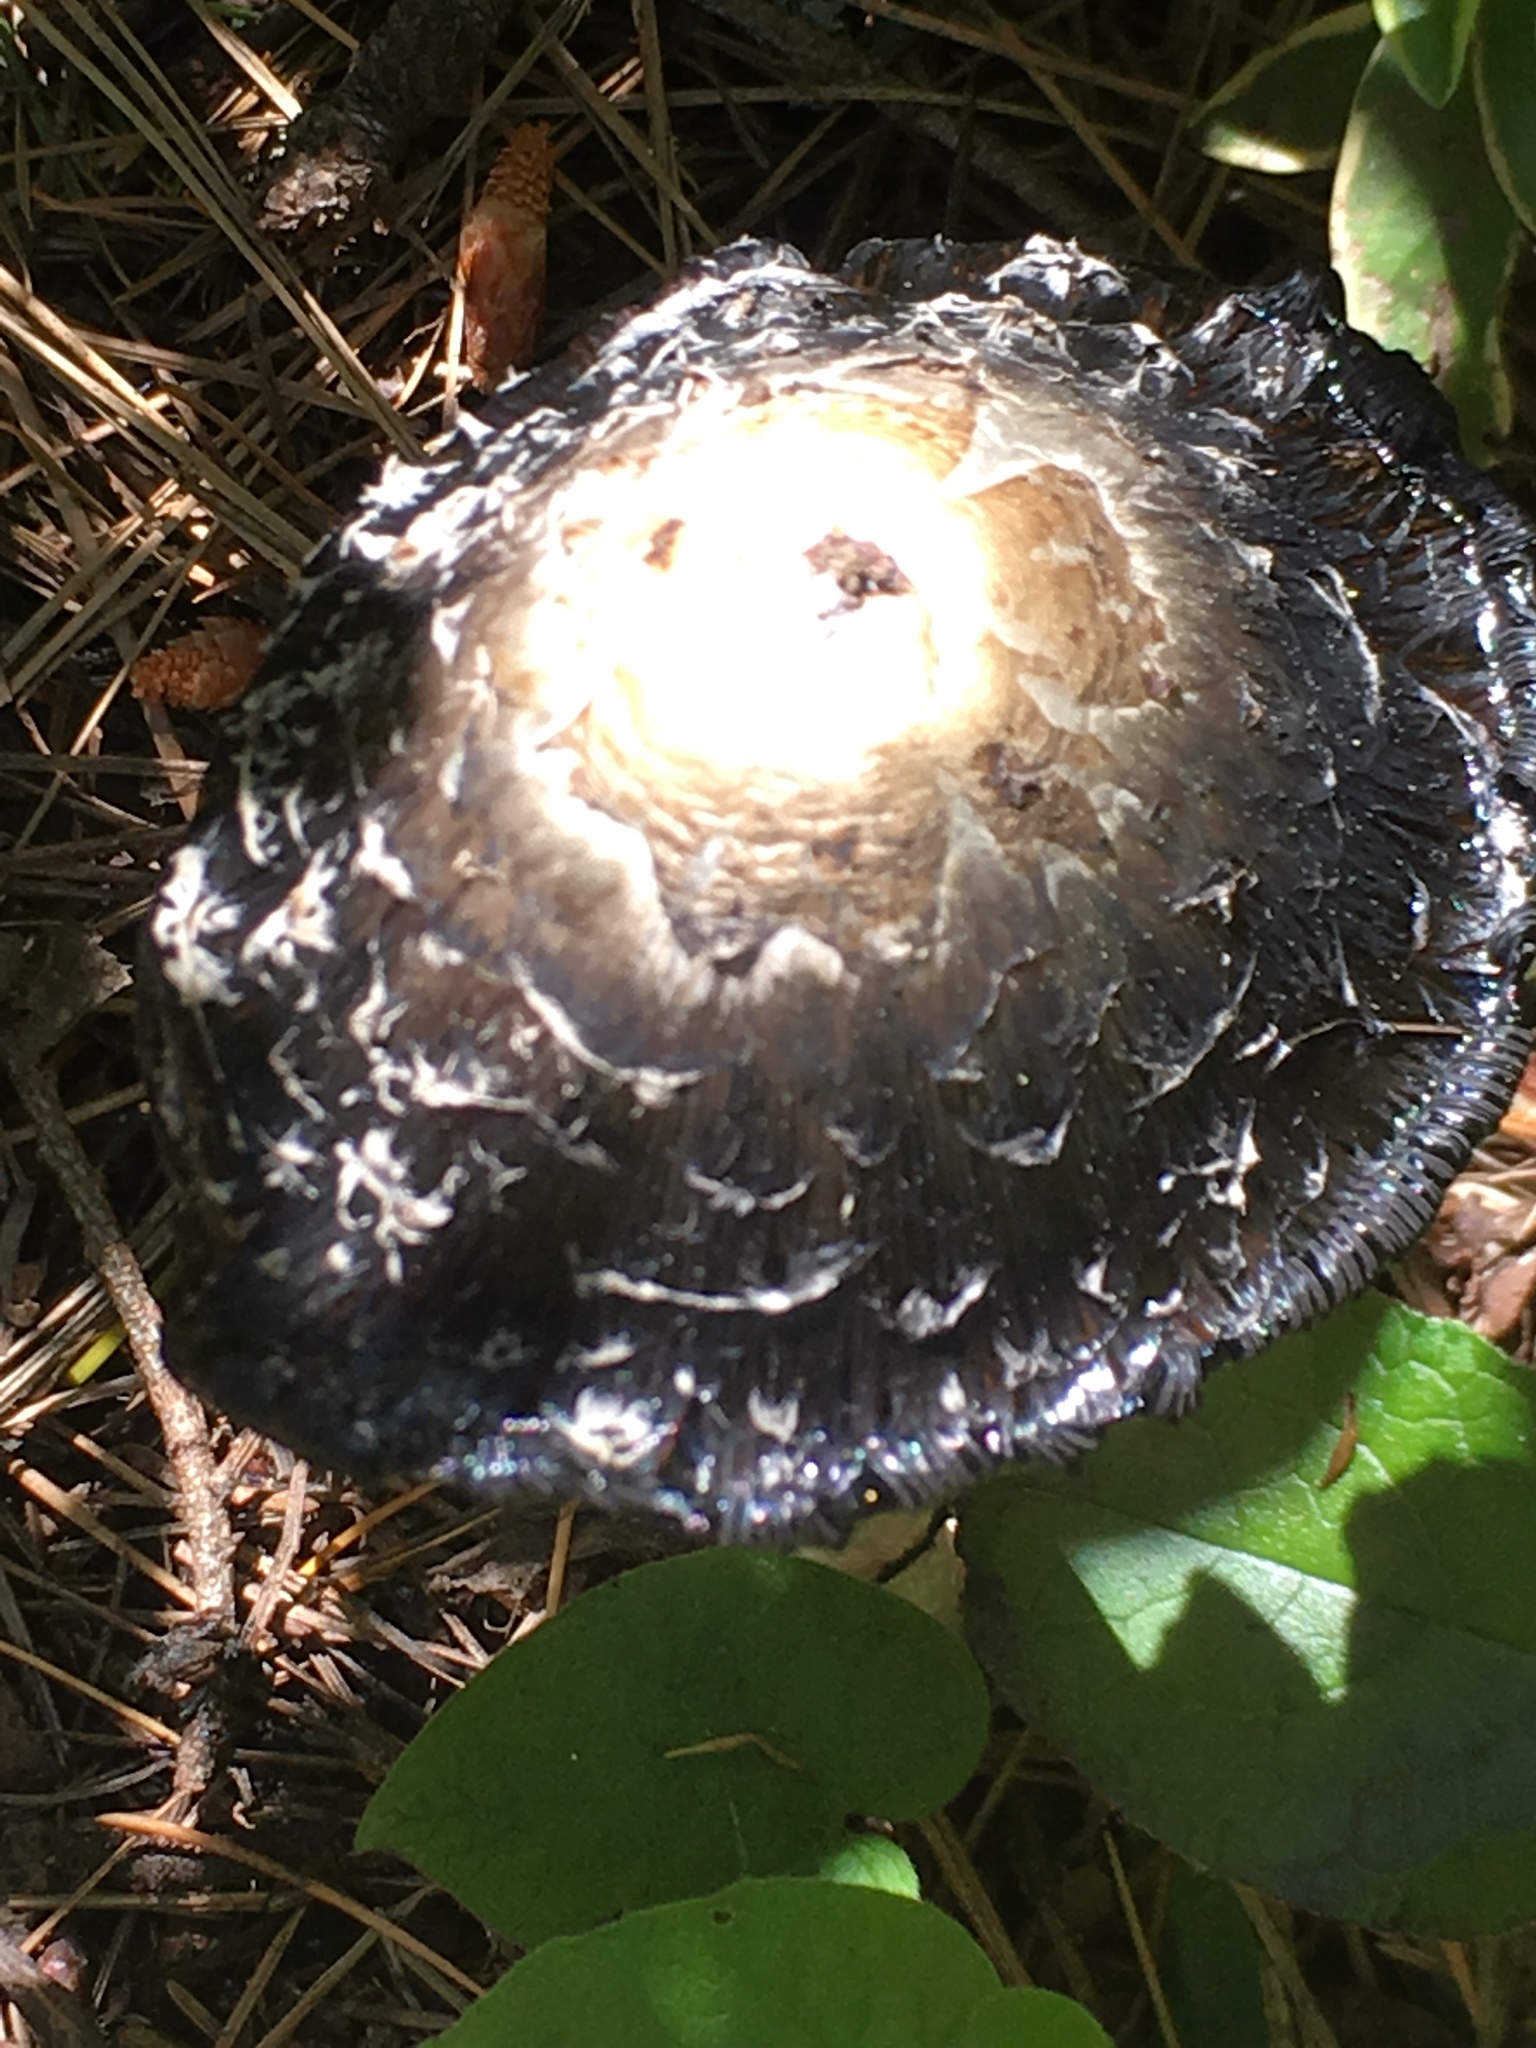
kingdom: Fungi
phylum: Basidiomycota
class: Agaricomycetes
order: Agaricales
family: Agaricaceae
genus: Coprinus
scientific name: Coprinus comatus
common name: Lawyer's wig
